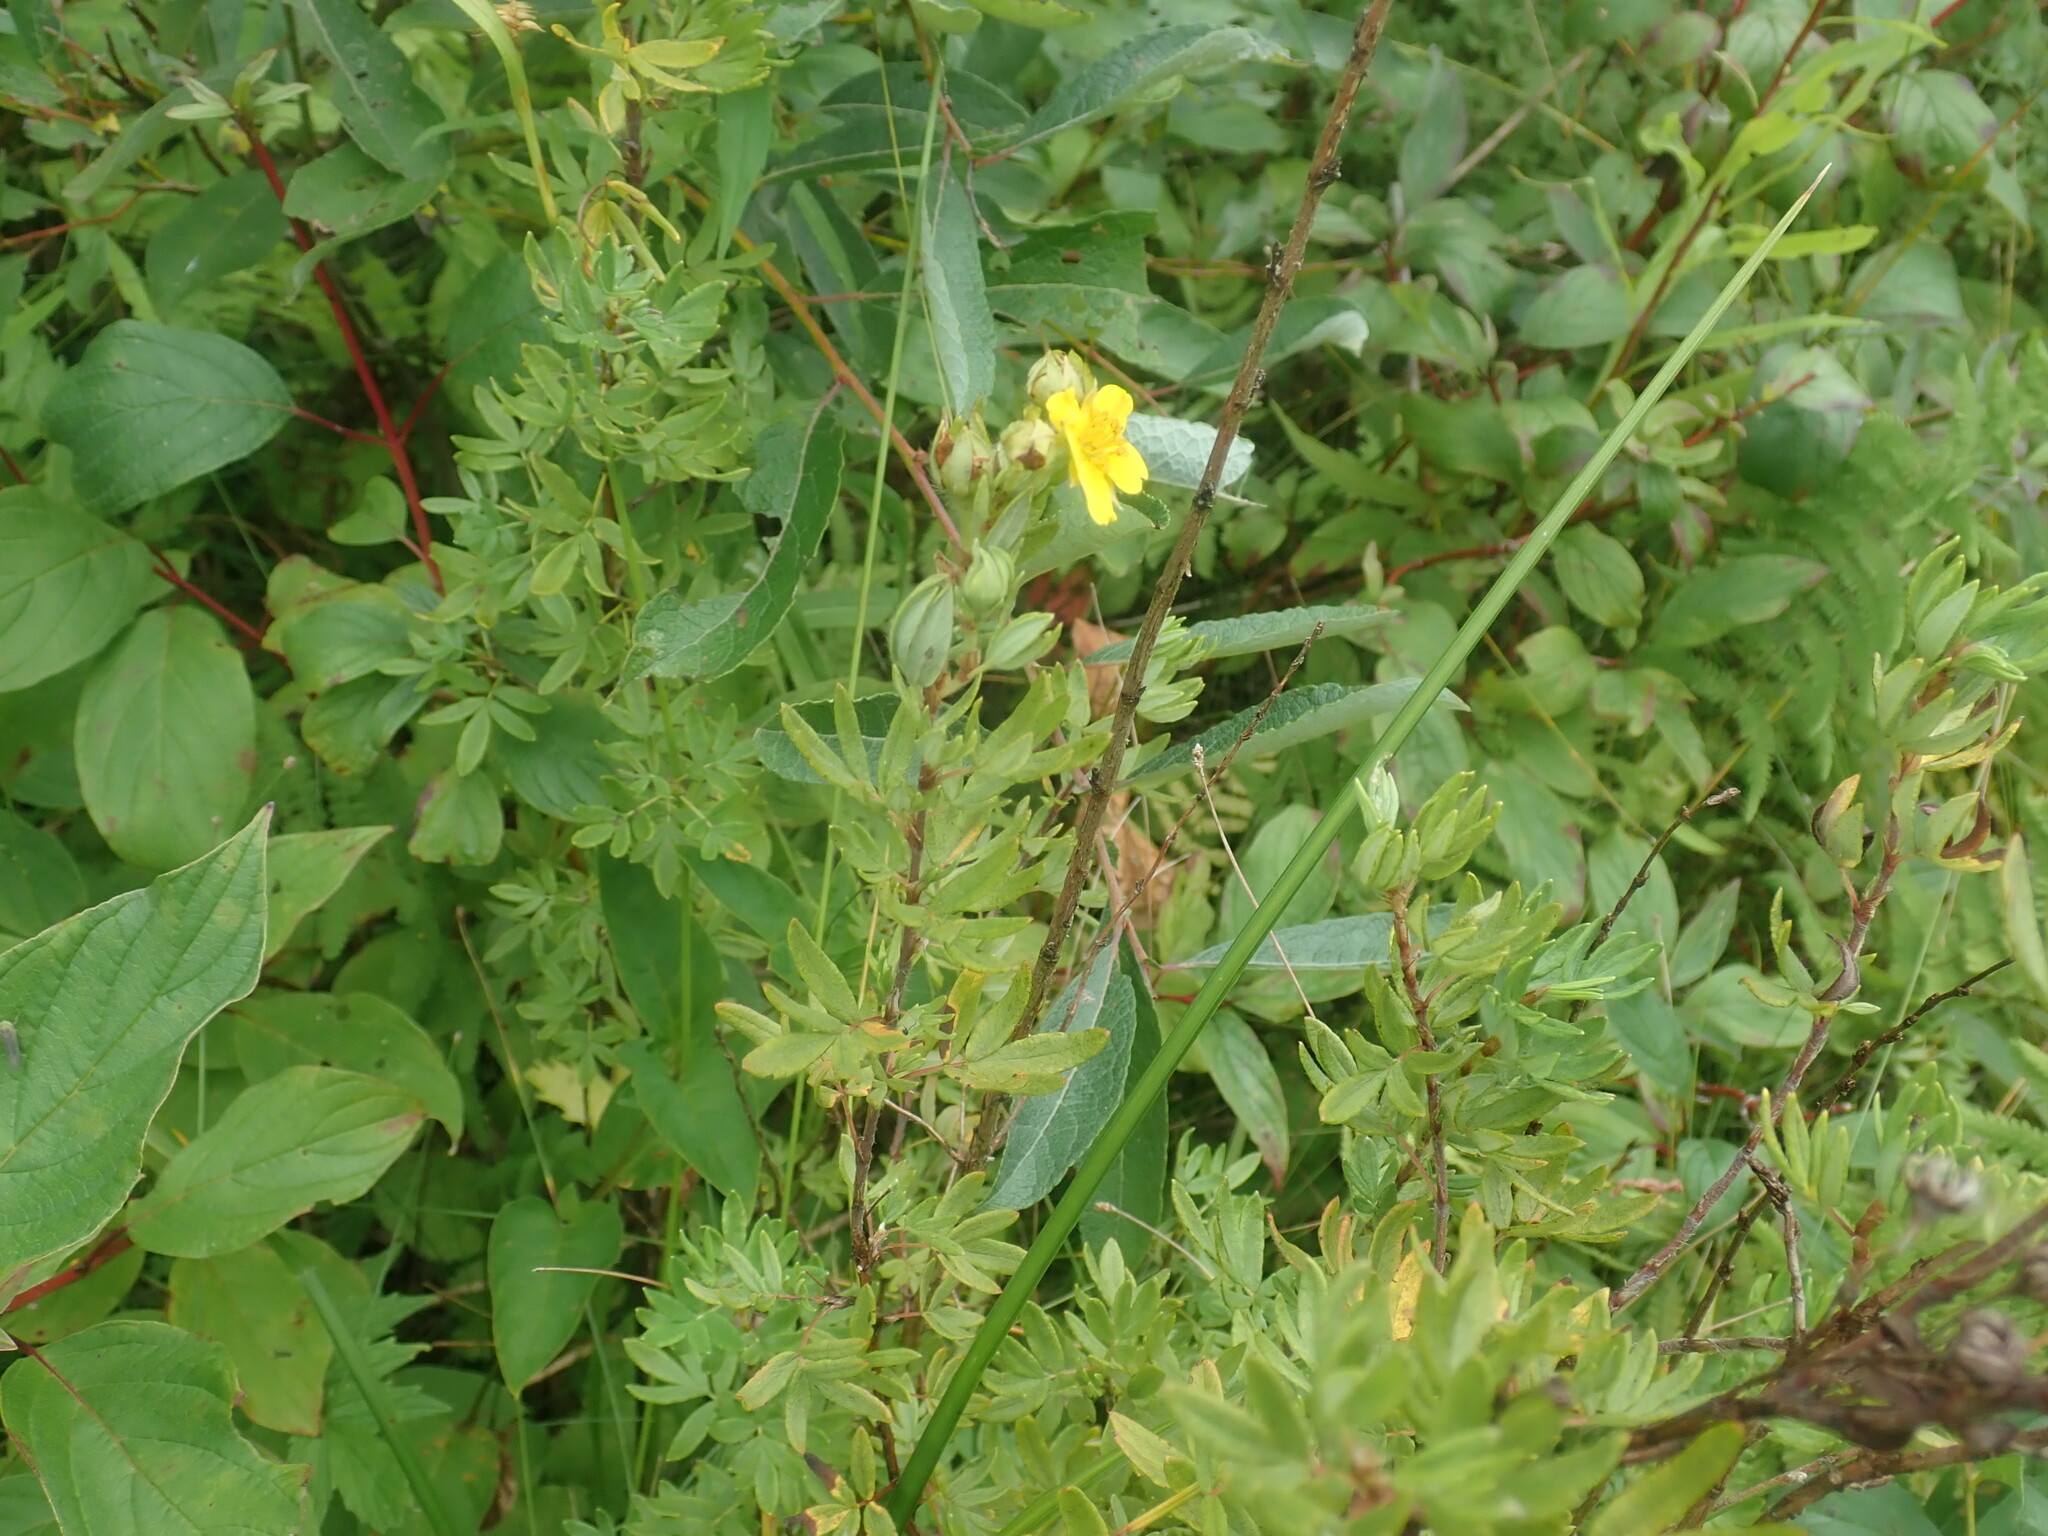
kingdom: Plantae
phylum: Tracheophyta
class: Magnoliopsida
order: Rosales
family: Rosaceae
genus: Dasiphora
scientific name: Dasiphora fruticosa
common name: Shrubby cinquefoil
